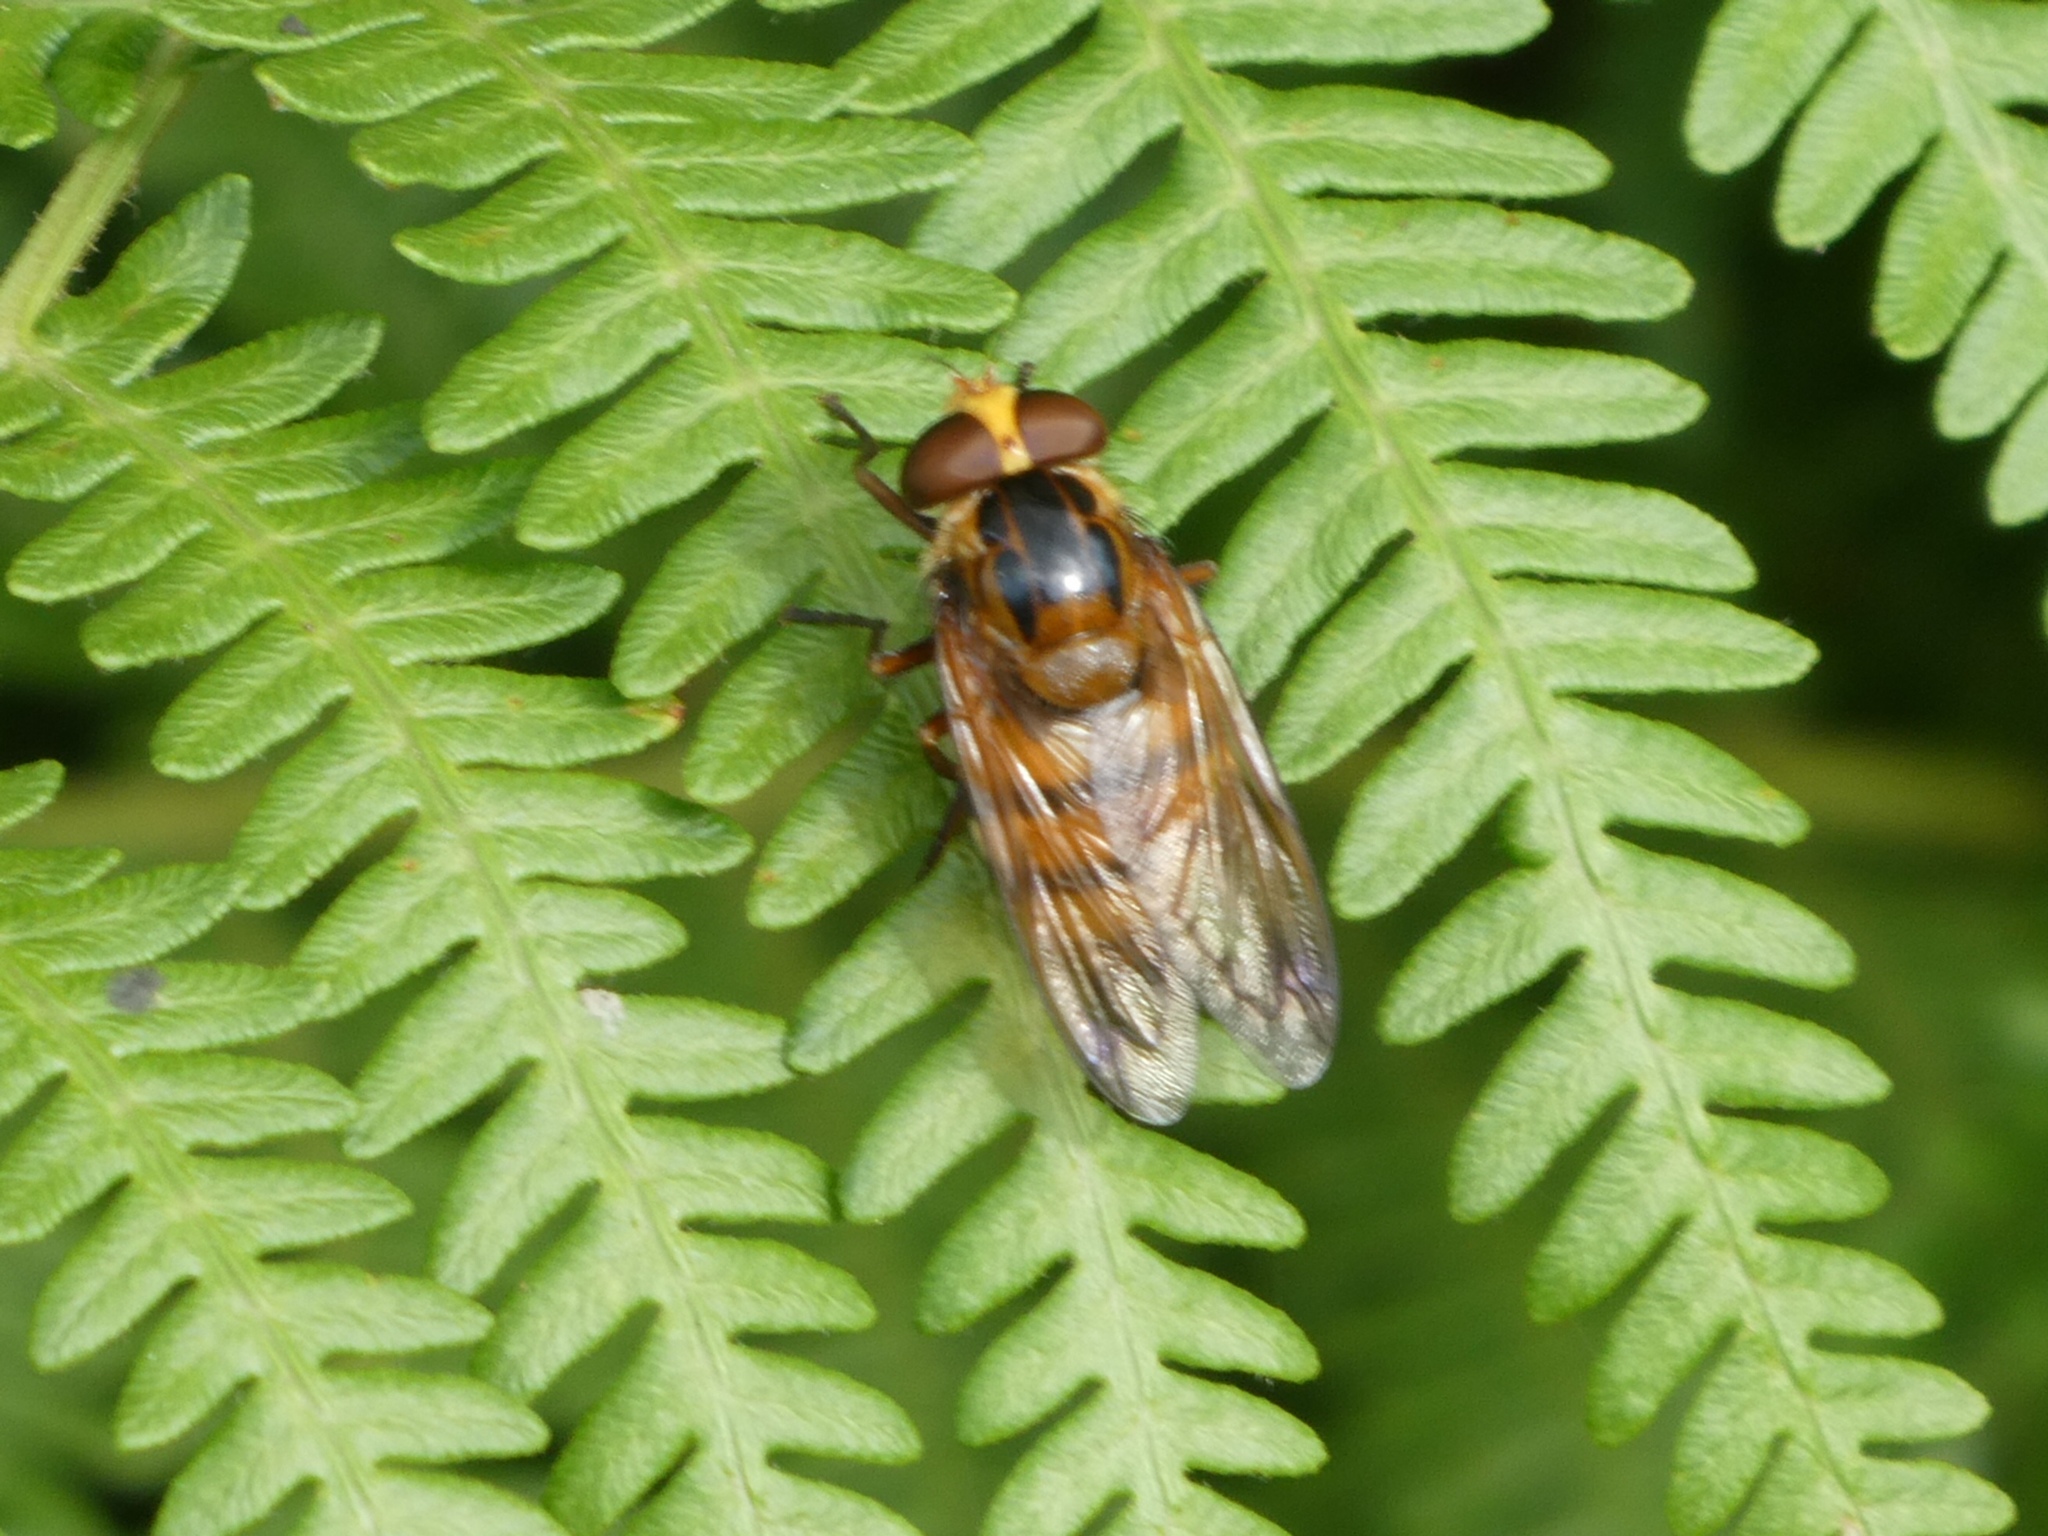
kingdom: Animalia
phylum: Arthropoda
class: Insecta
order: Diptera
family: Syrphidae
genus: Volucella
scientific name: Volucella inanis
